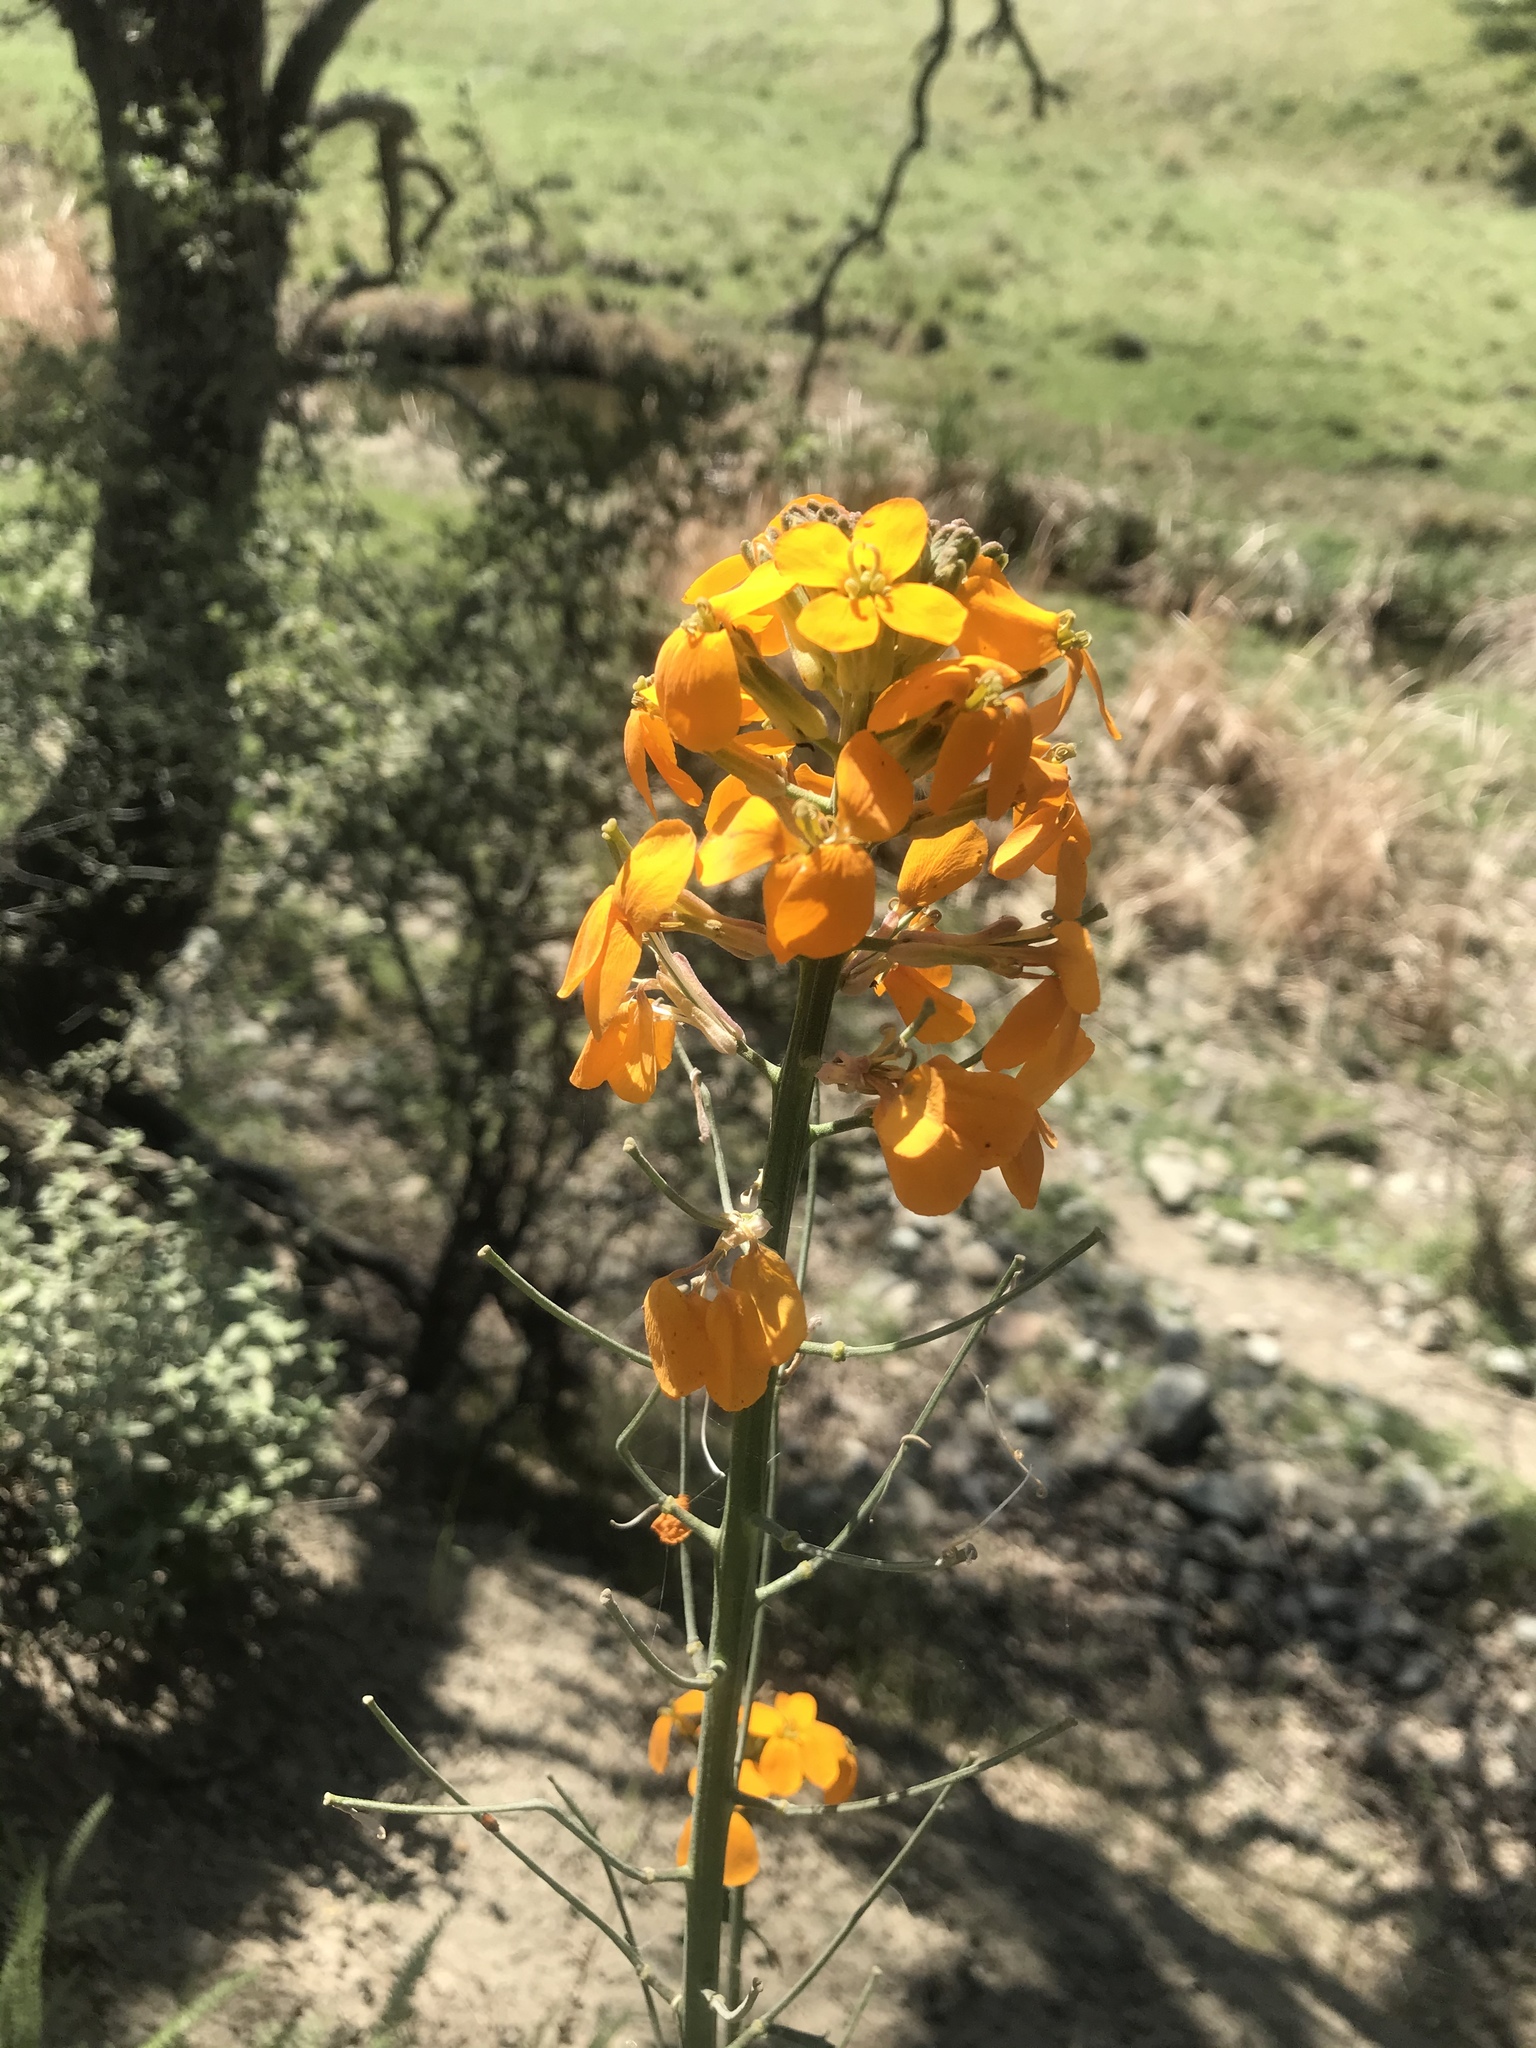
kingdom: Plantae
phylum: Tracheophyta
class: Magnoliopsida
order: Brassicales
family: Brassicaceae
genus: Erysimum
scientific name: Erysimum capitatum
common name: Western wallflower
